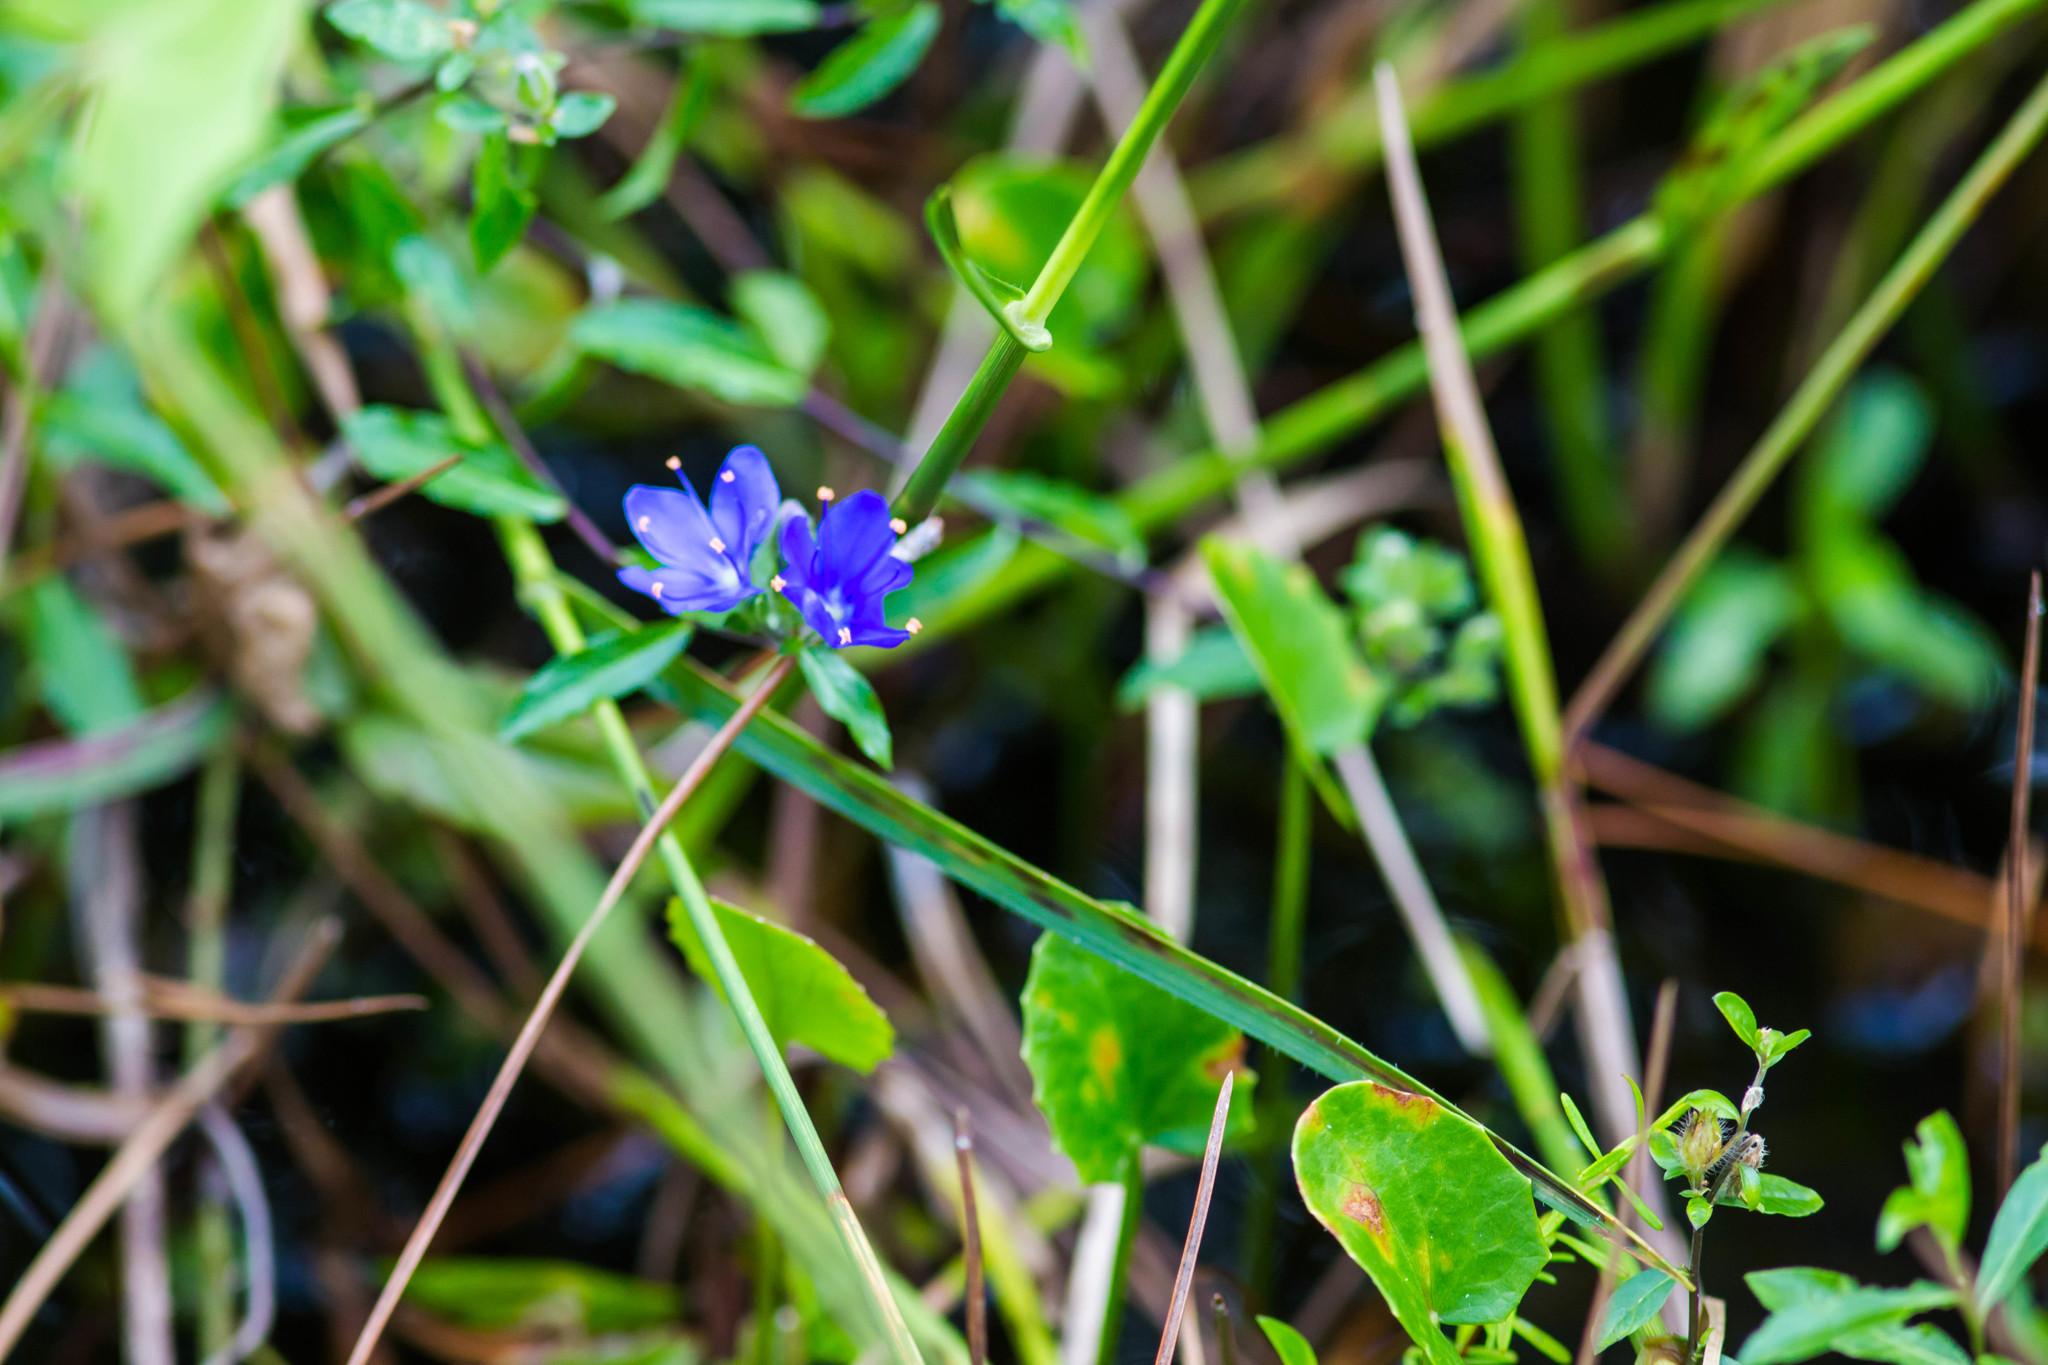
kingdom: Plantae
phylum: Tracheophyta
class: Magnoliopsida
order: Solanales
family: Hydroleaceae
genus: Hydrolea
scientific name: Hydrolea corymbosa
